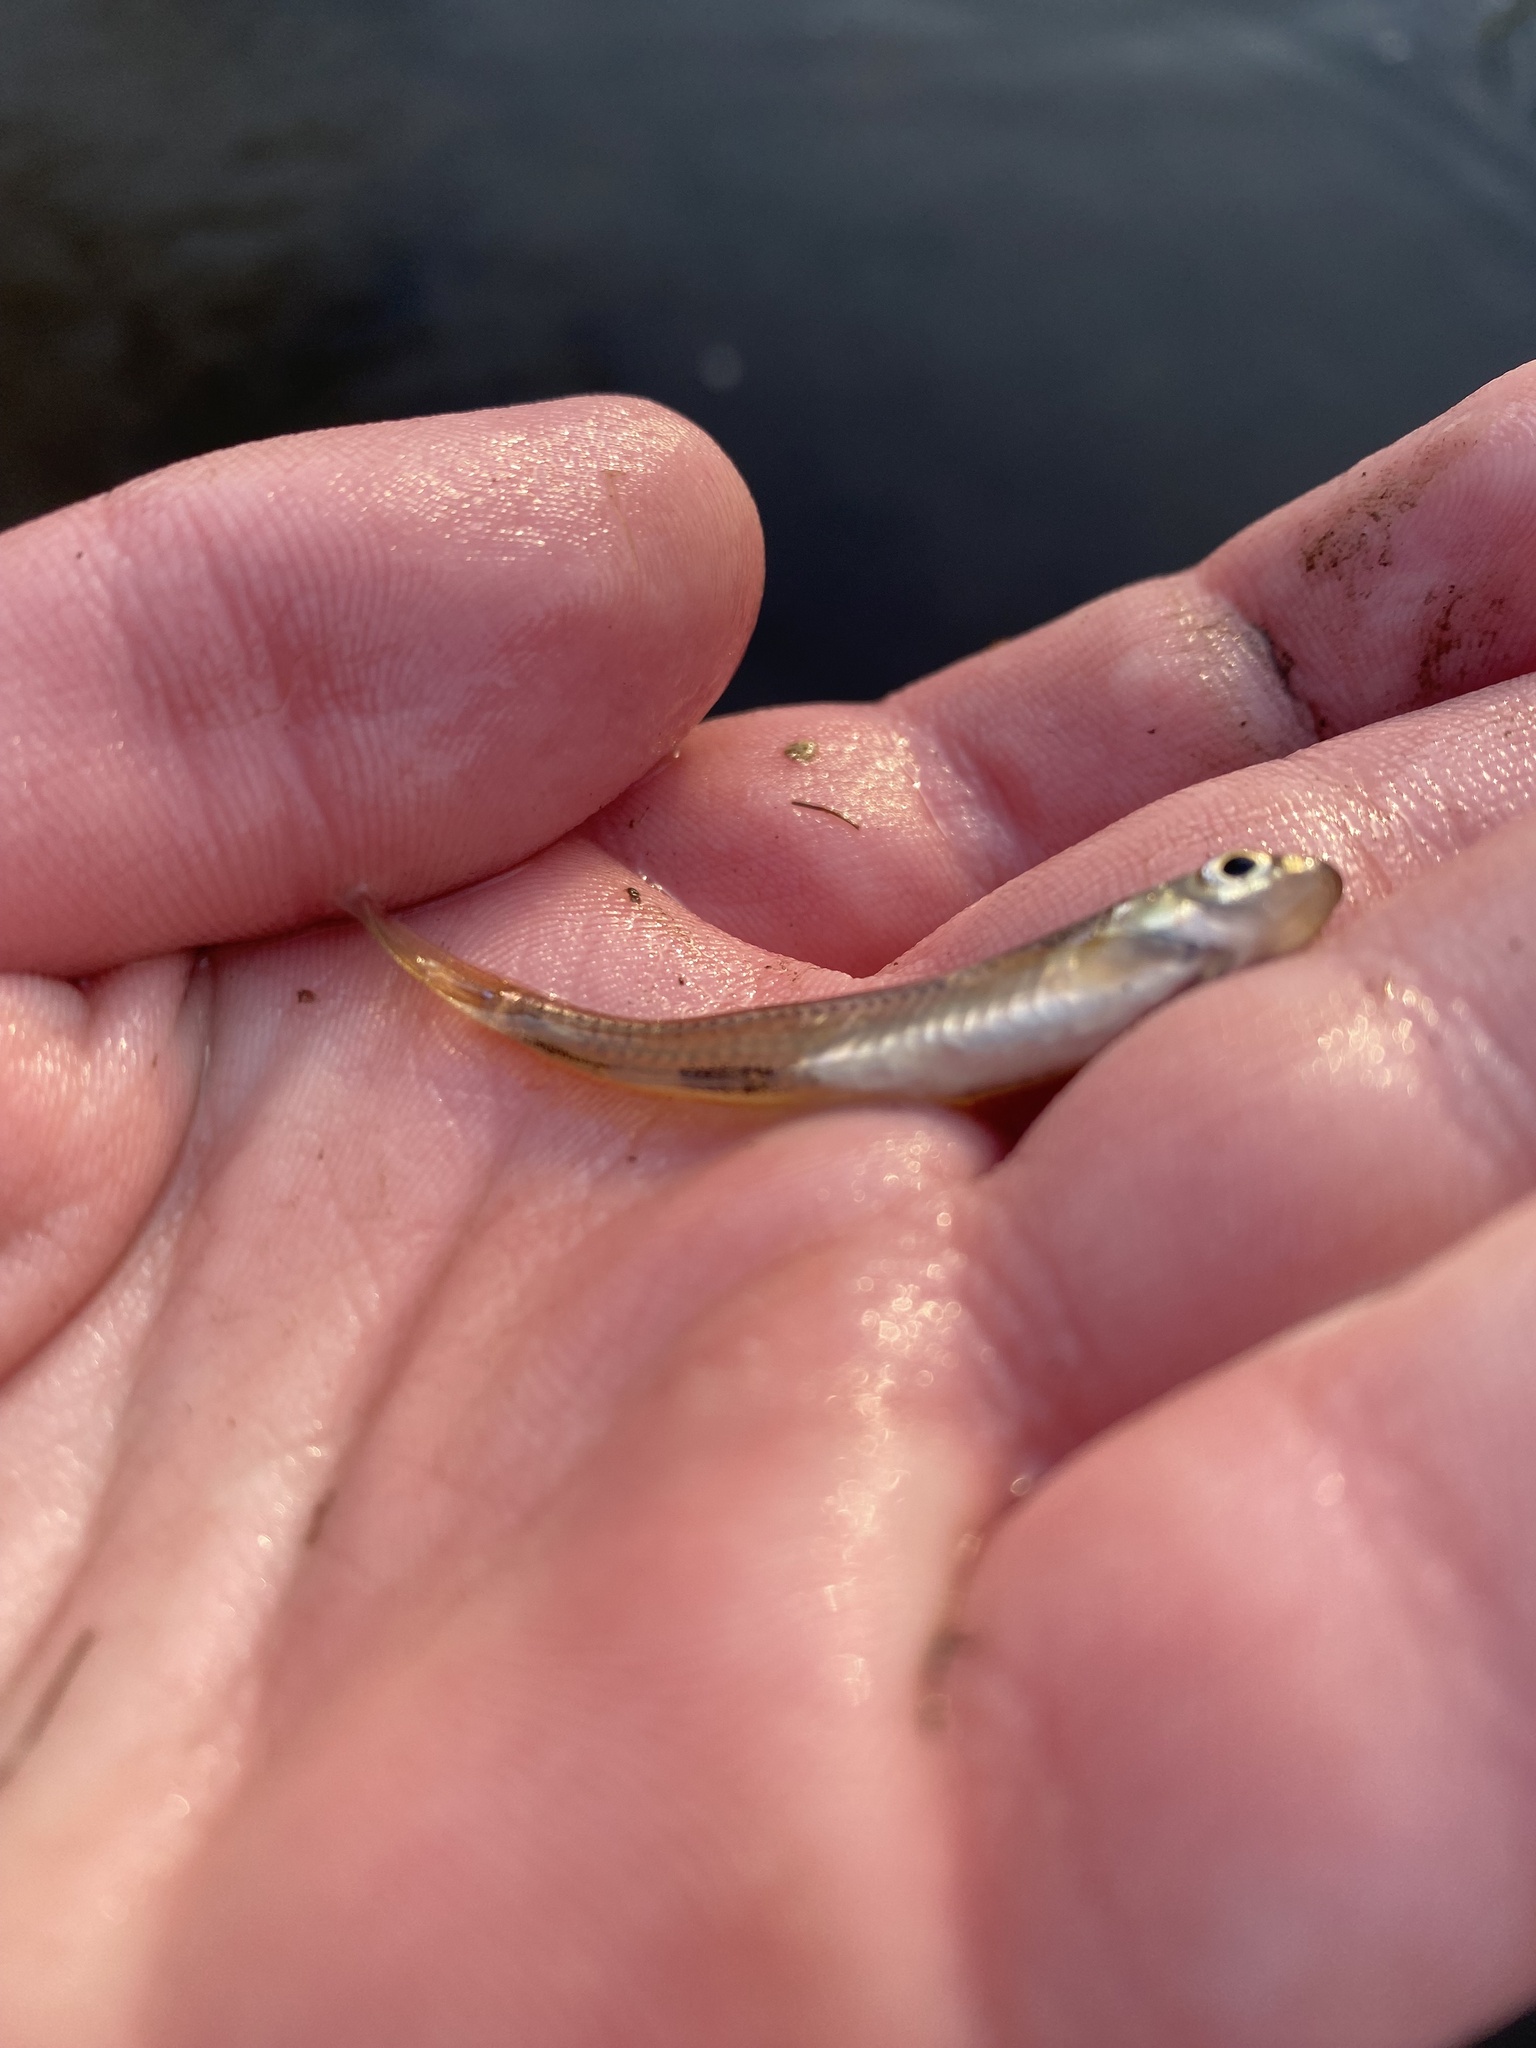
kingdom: Animalia
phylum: Chordata
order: Cypriniformes
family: Cyprinidae
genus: Notropis
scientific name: Notropis
